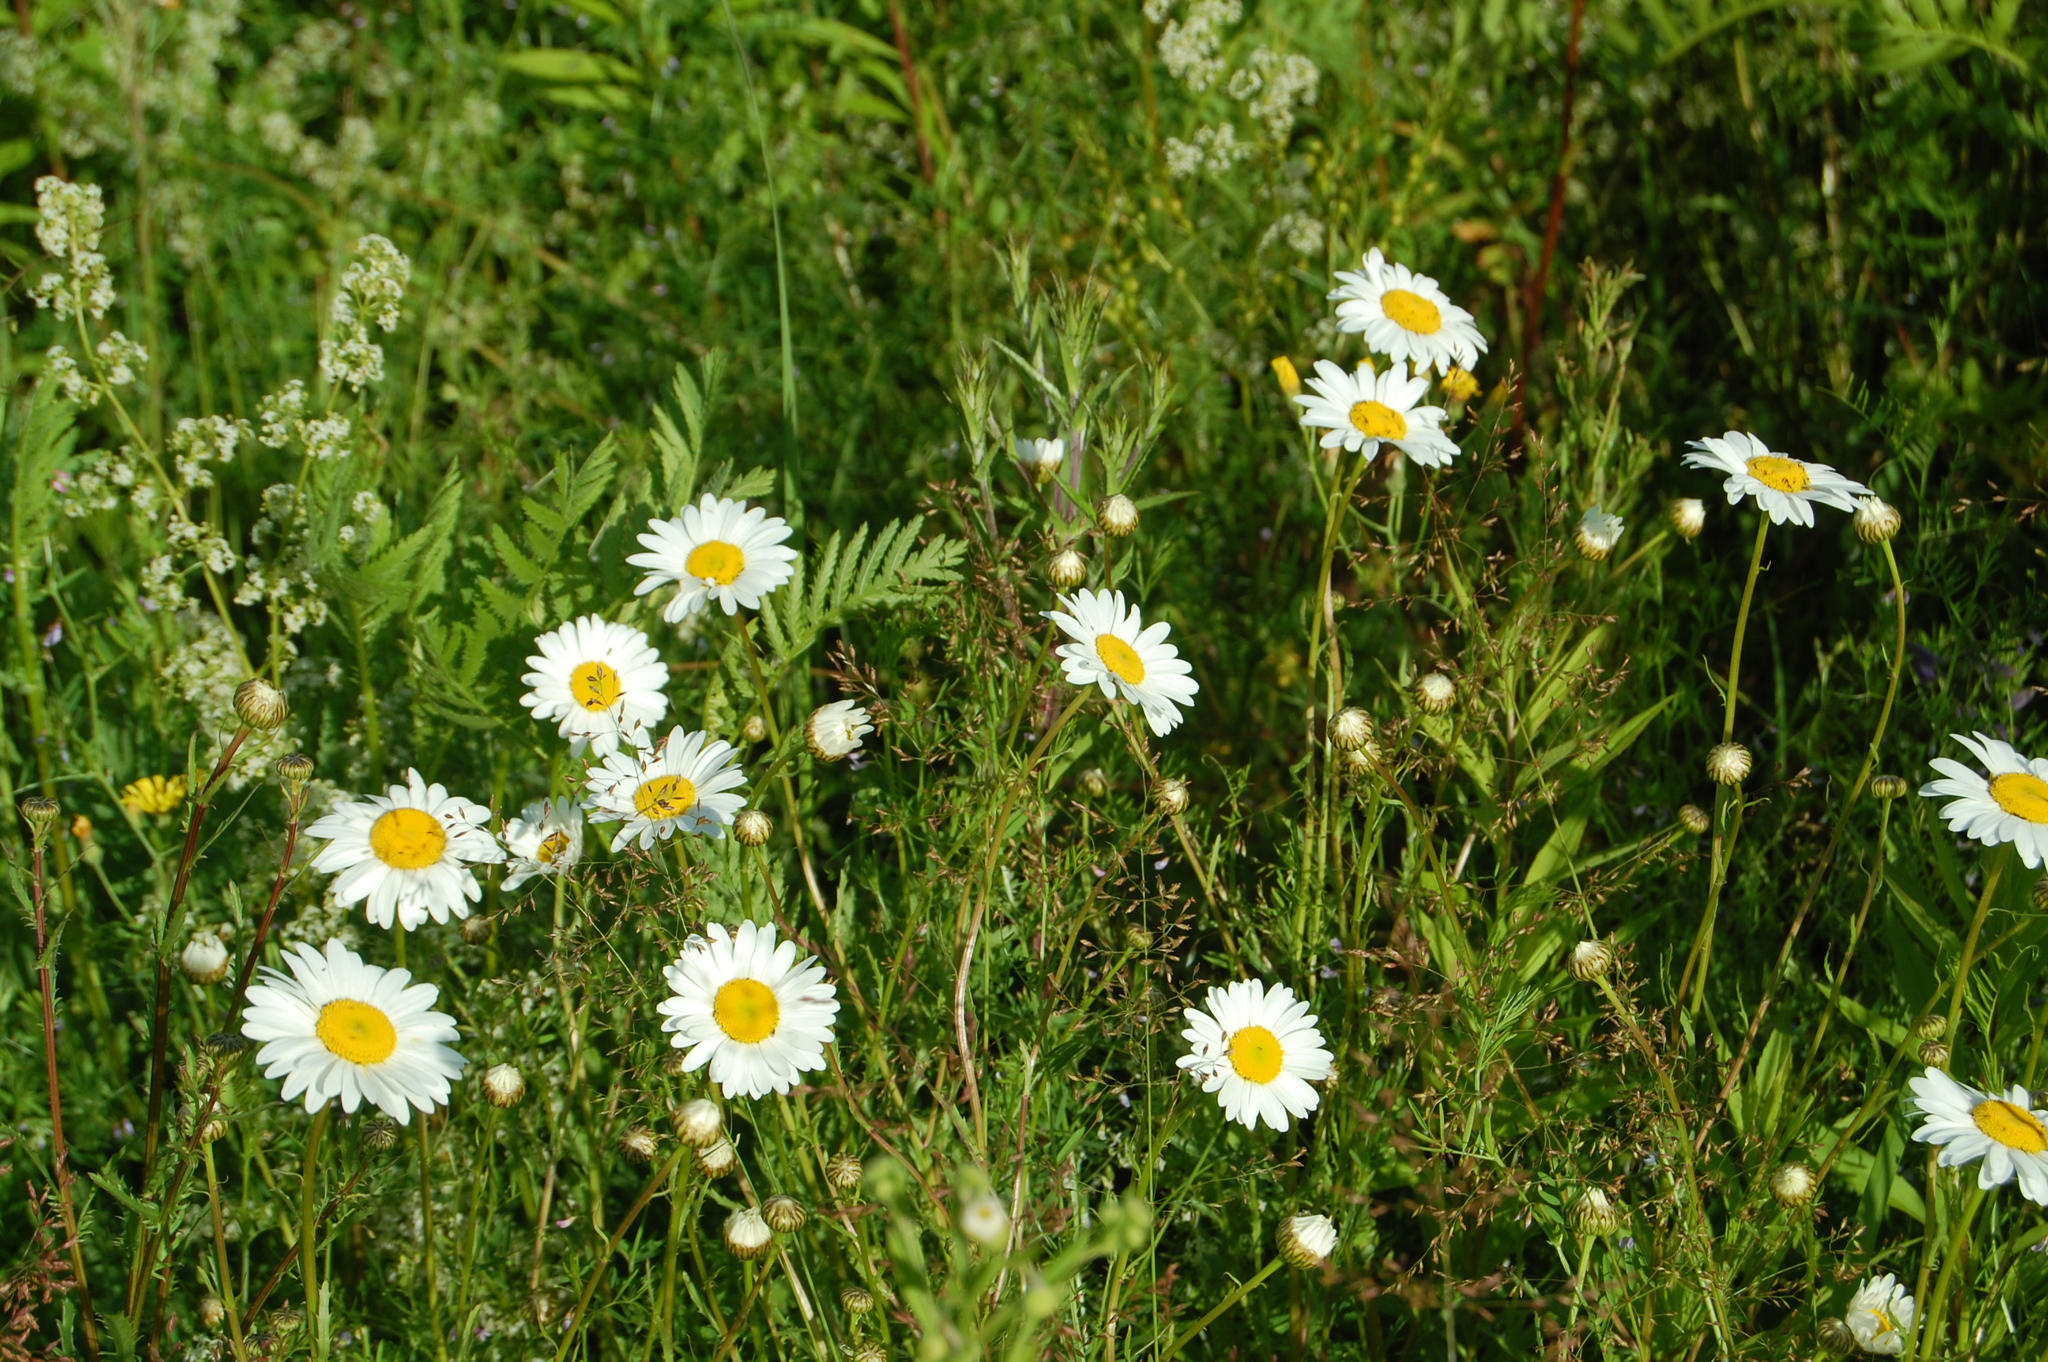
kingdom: Plantae
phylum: Tracheophyta
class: Magnoliopsida
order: Asterales
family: Asteraceae
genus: Leucanthemum
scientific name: Leucanthemum vulgare
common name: Oxeye daisy
